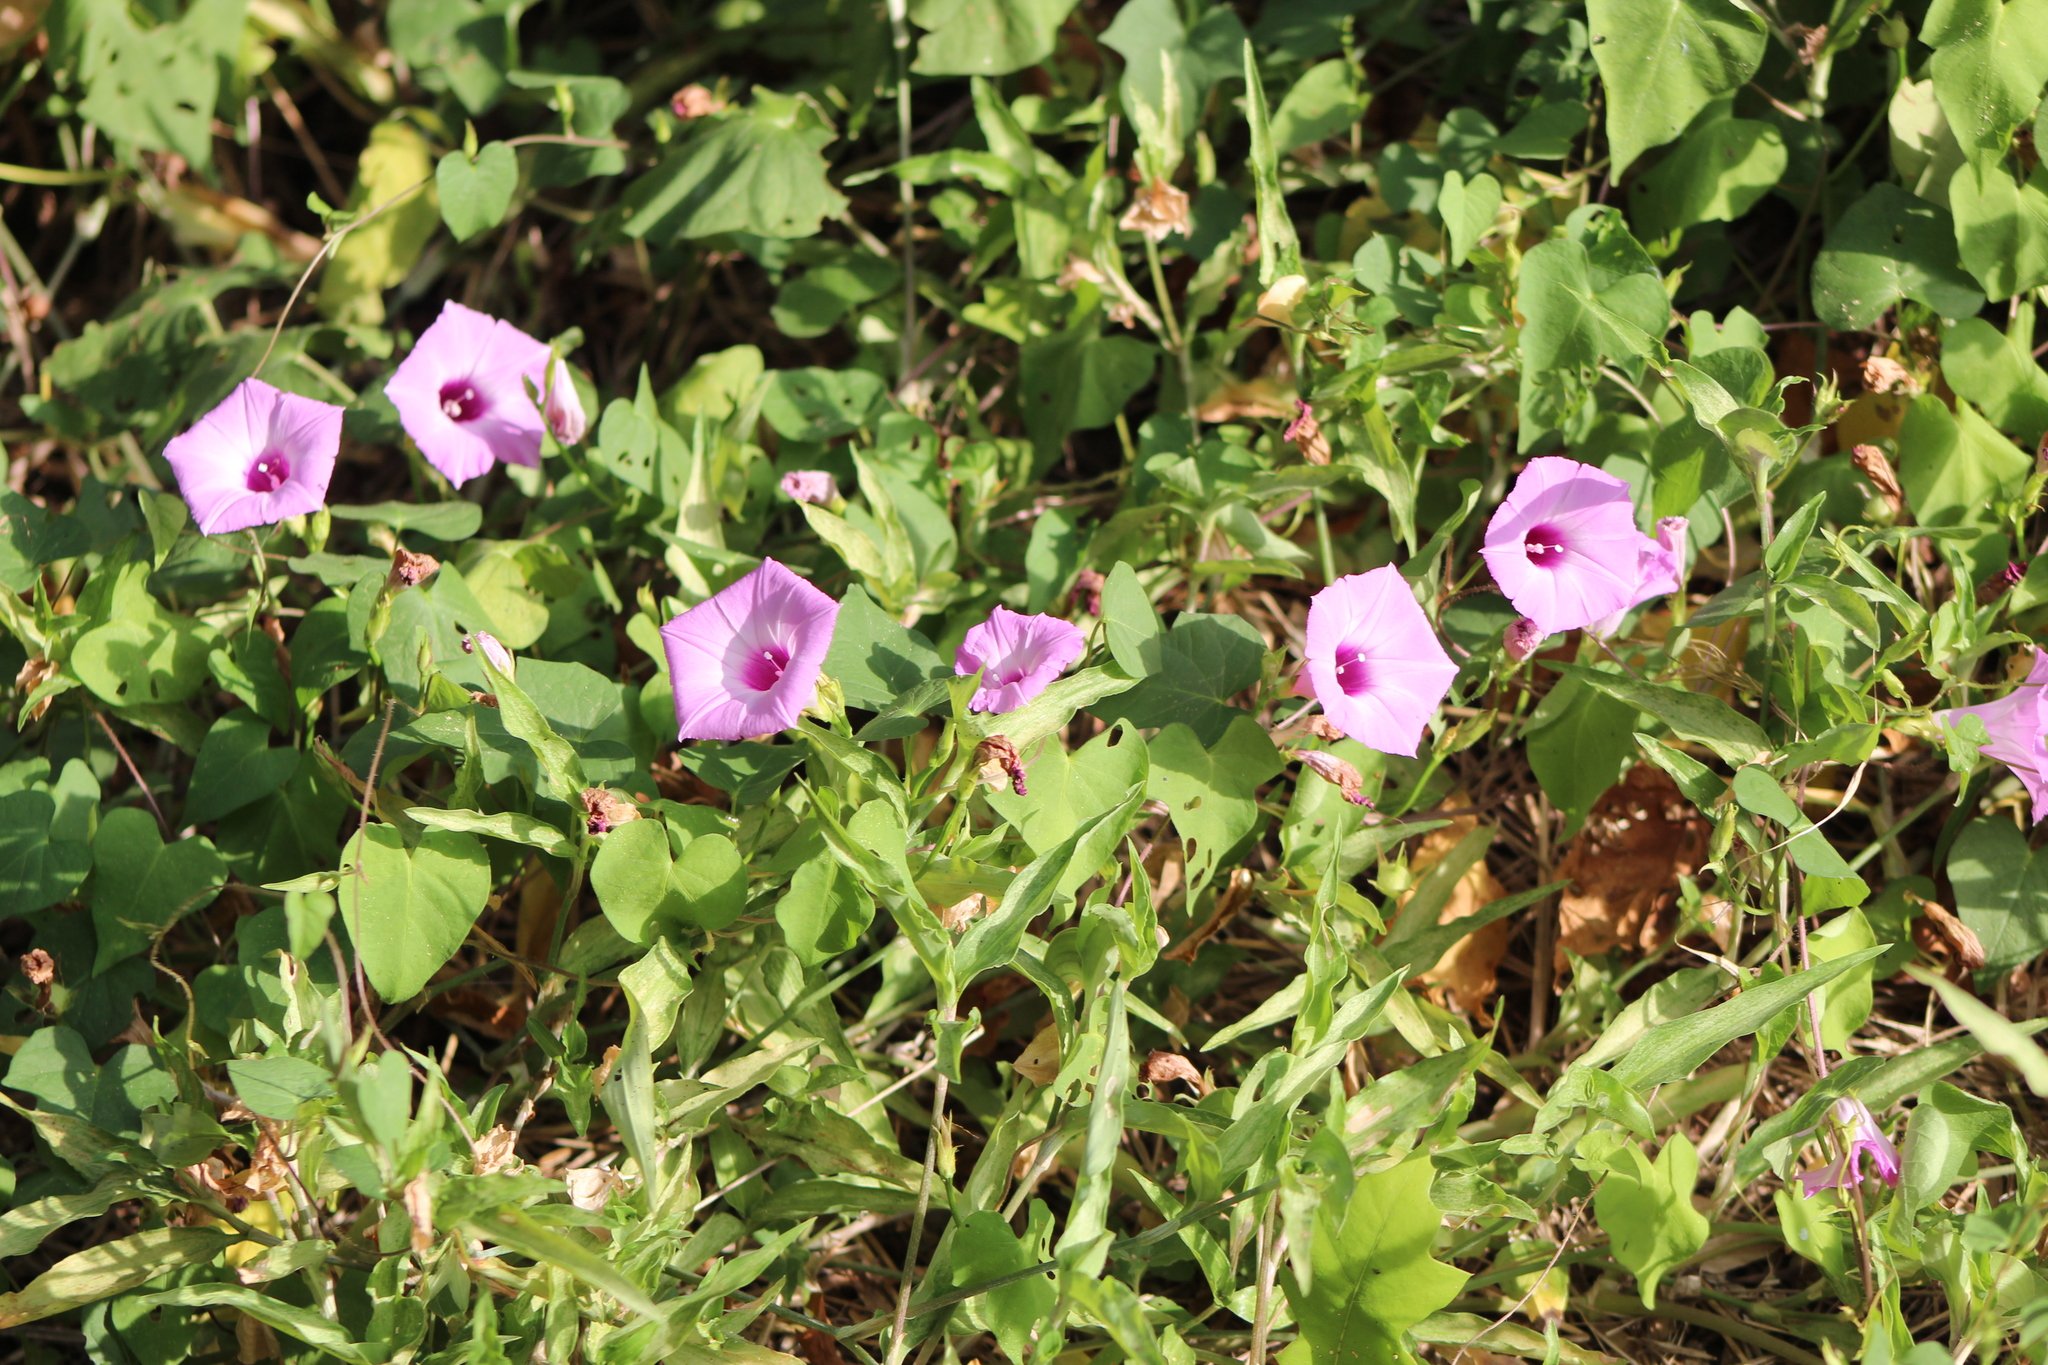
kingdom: Plantae
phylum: Tracheophyta
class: Magnoliopsida
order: Solanales
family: Convolvulaceae
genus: Ipomoea
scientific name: Ipomoea cordatotriloba
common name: Cotton morning glory
